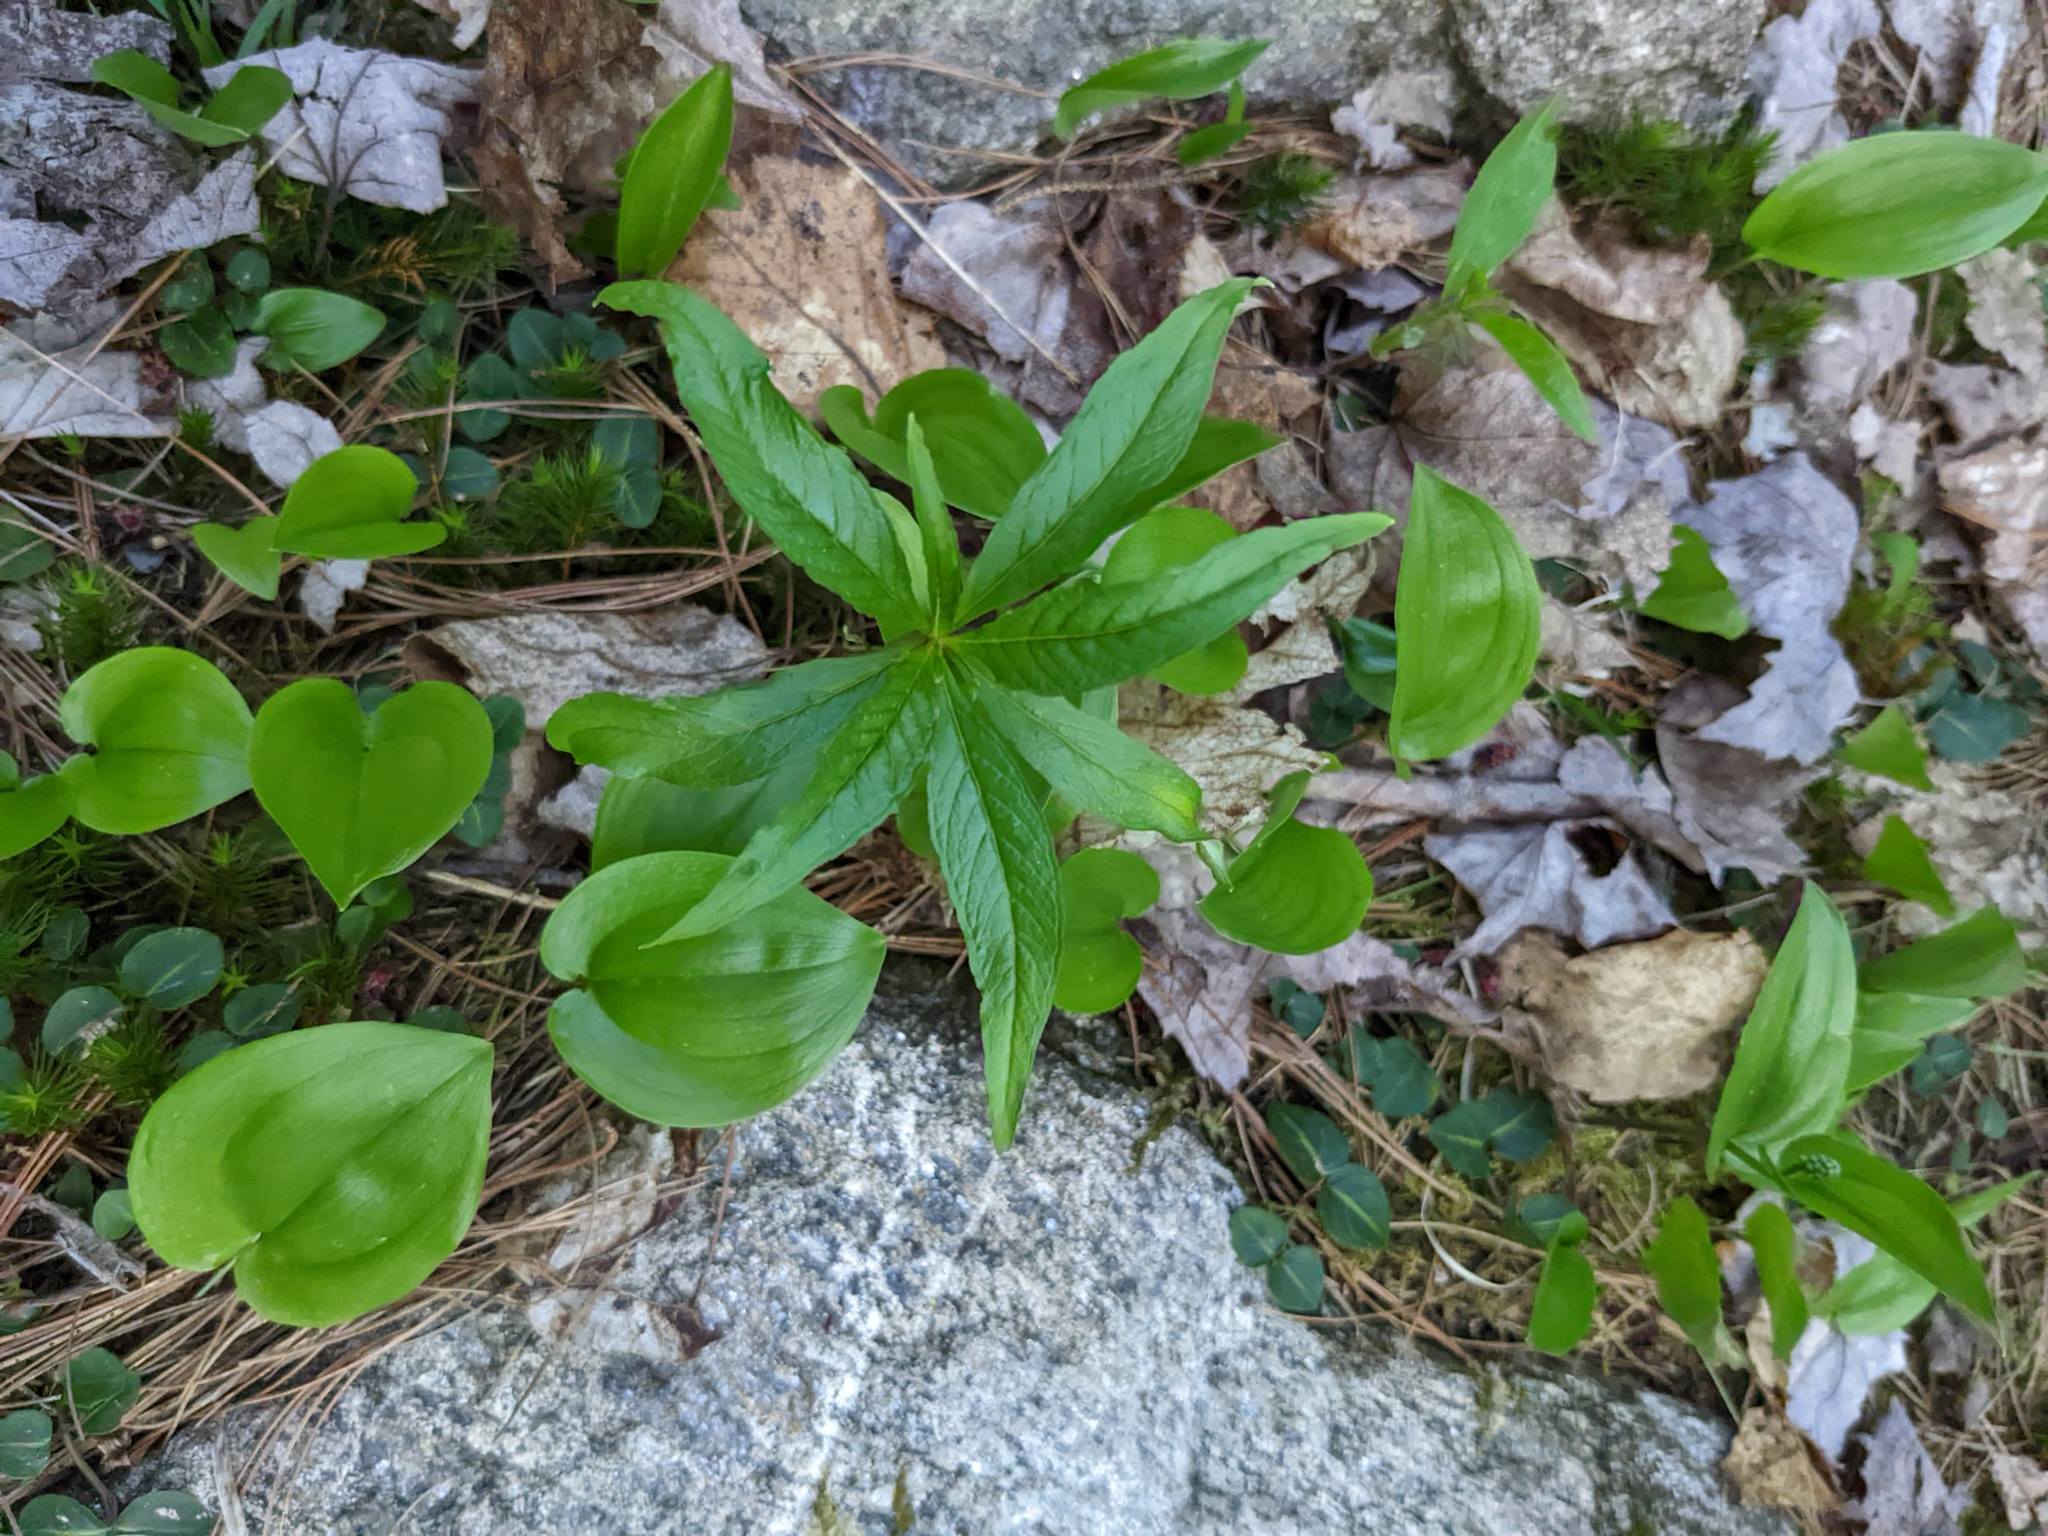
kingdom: Plantae
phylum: Tracheophyta
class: Liliopsida
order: Asparagales
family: Asparagaceae
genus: Maianthemum
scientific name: Maianthemum canadense
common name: False lily-of-the-valley
